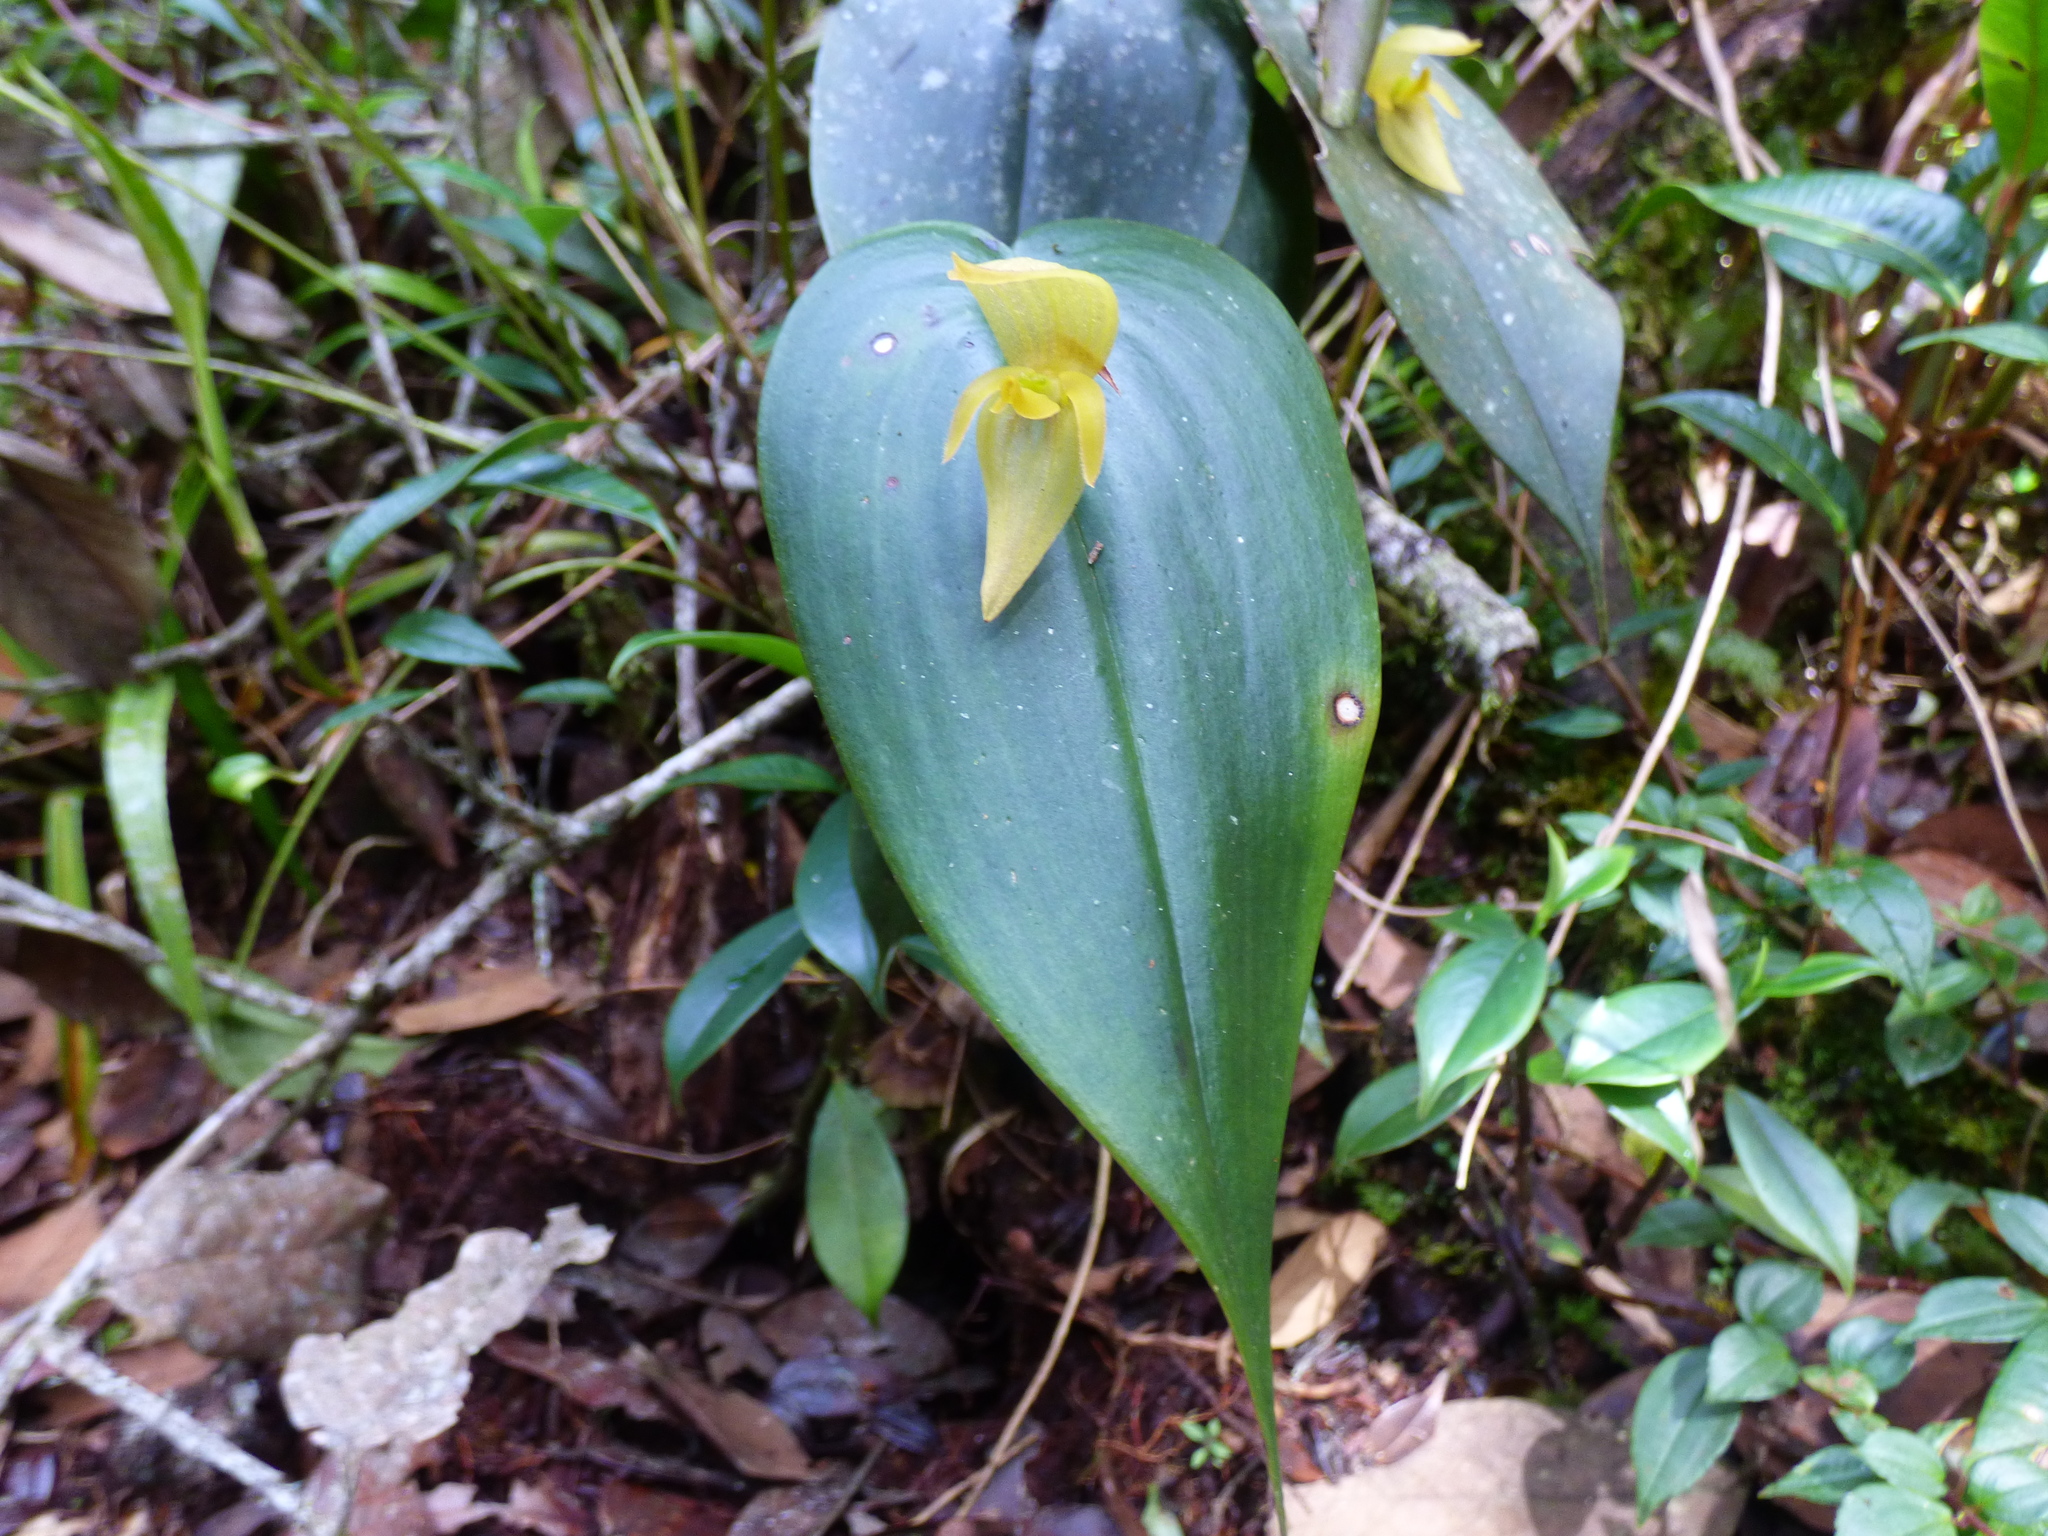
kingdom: Plantae
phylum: Tracheophyta
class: Liliopsida
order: Asparagales
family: Orchidaceae
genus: Pleurothallis
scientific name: Pleurothallis siphoglossa
